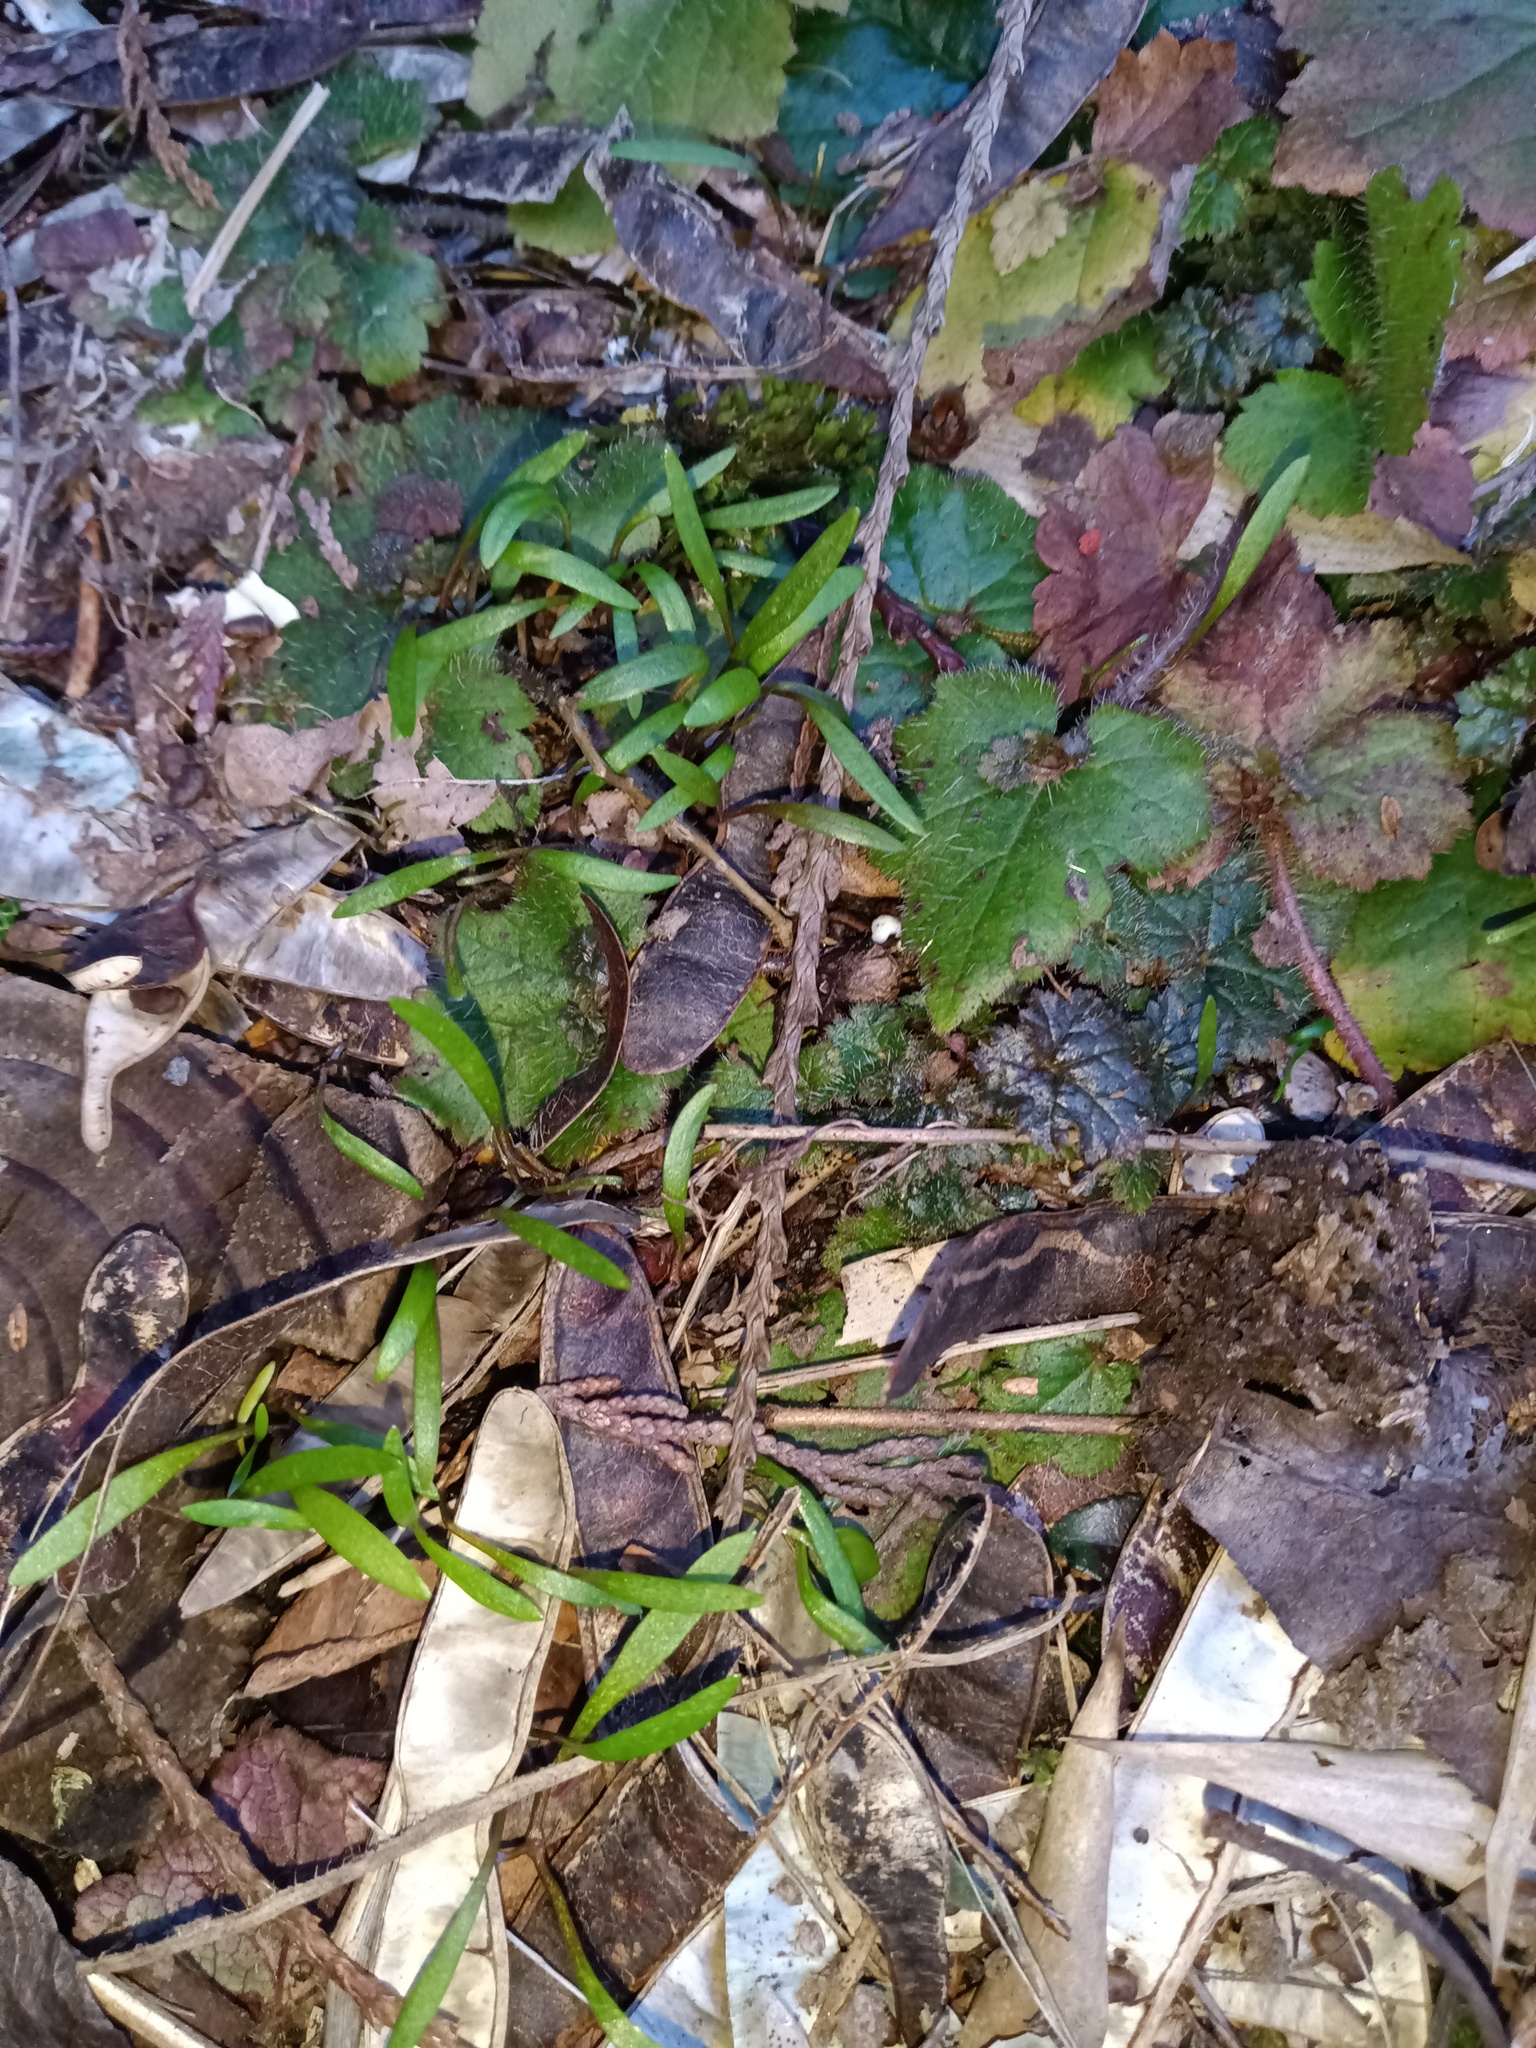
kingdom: Plantae
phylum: Tracheophyta
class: Magnoliopsida
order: Caryophyllales
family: Montiaceae
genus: Claytonia
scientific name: Claytonia sibirica
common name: Pink purslane
